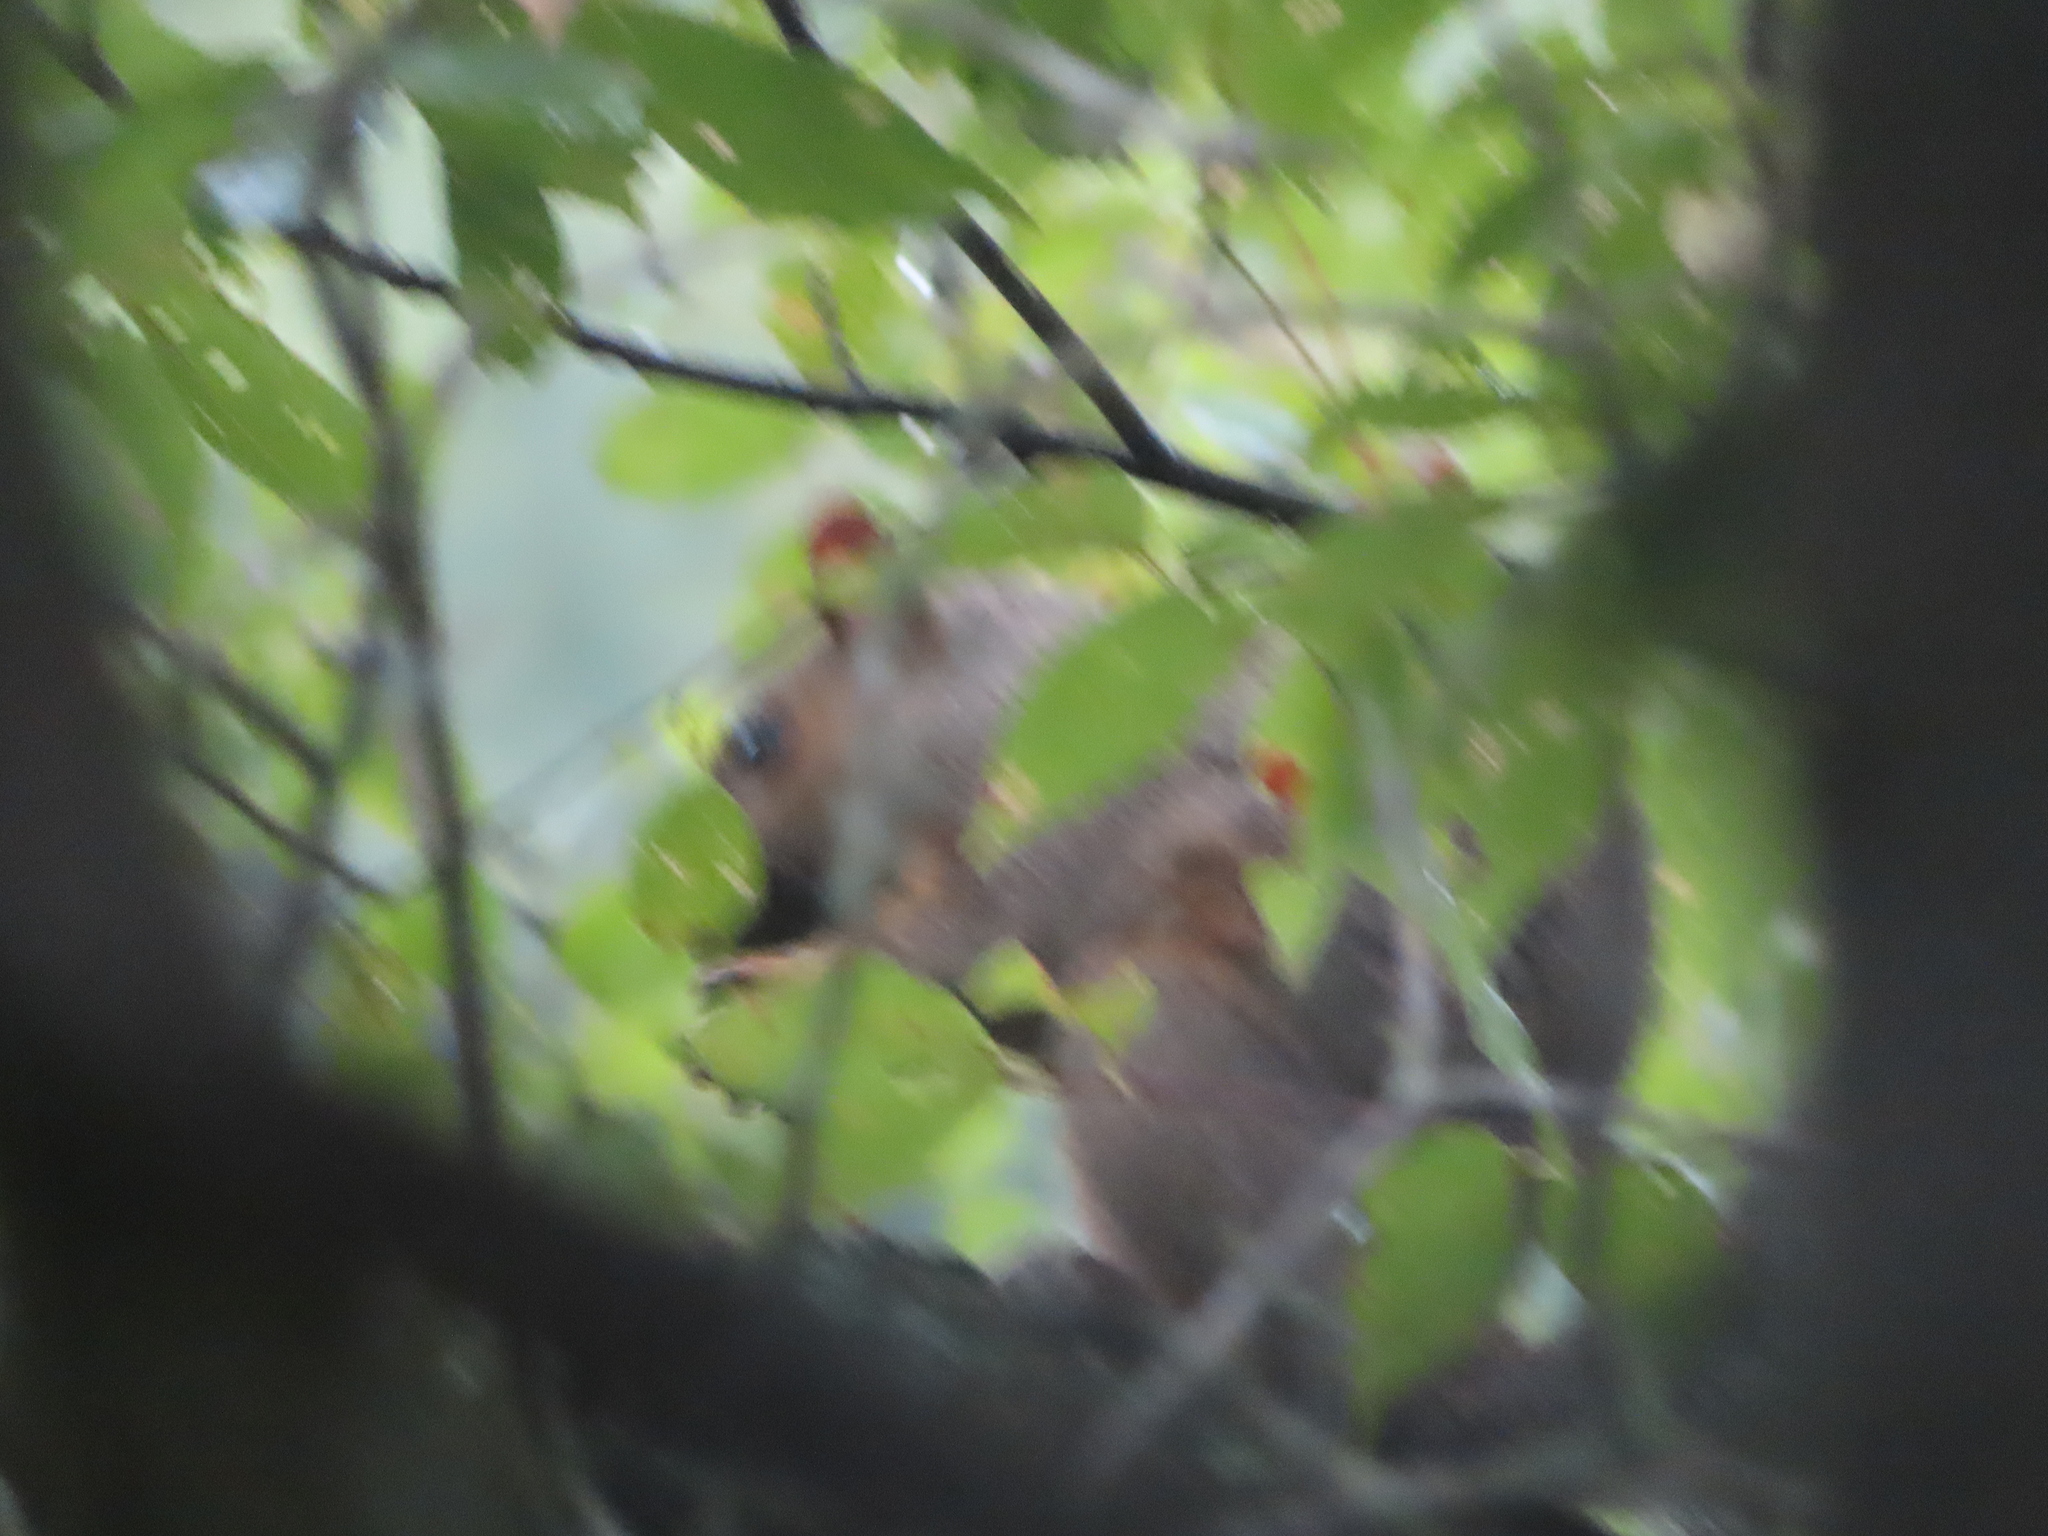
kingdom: Animalia
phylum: Chordata
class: Mammalia
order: Rodentia
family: Sciuridae
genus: Sciurus
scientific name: Sciurus carolinensis
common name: Eastern gray squirrel
